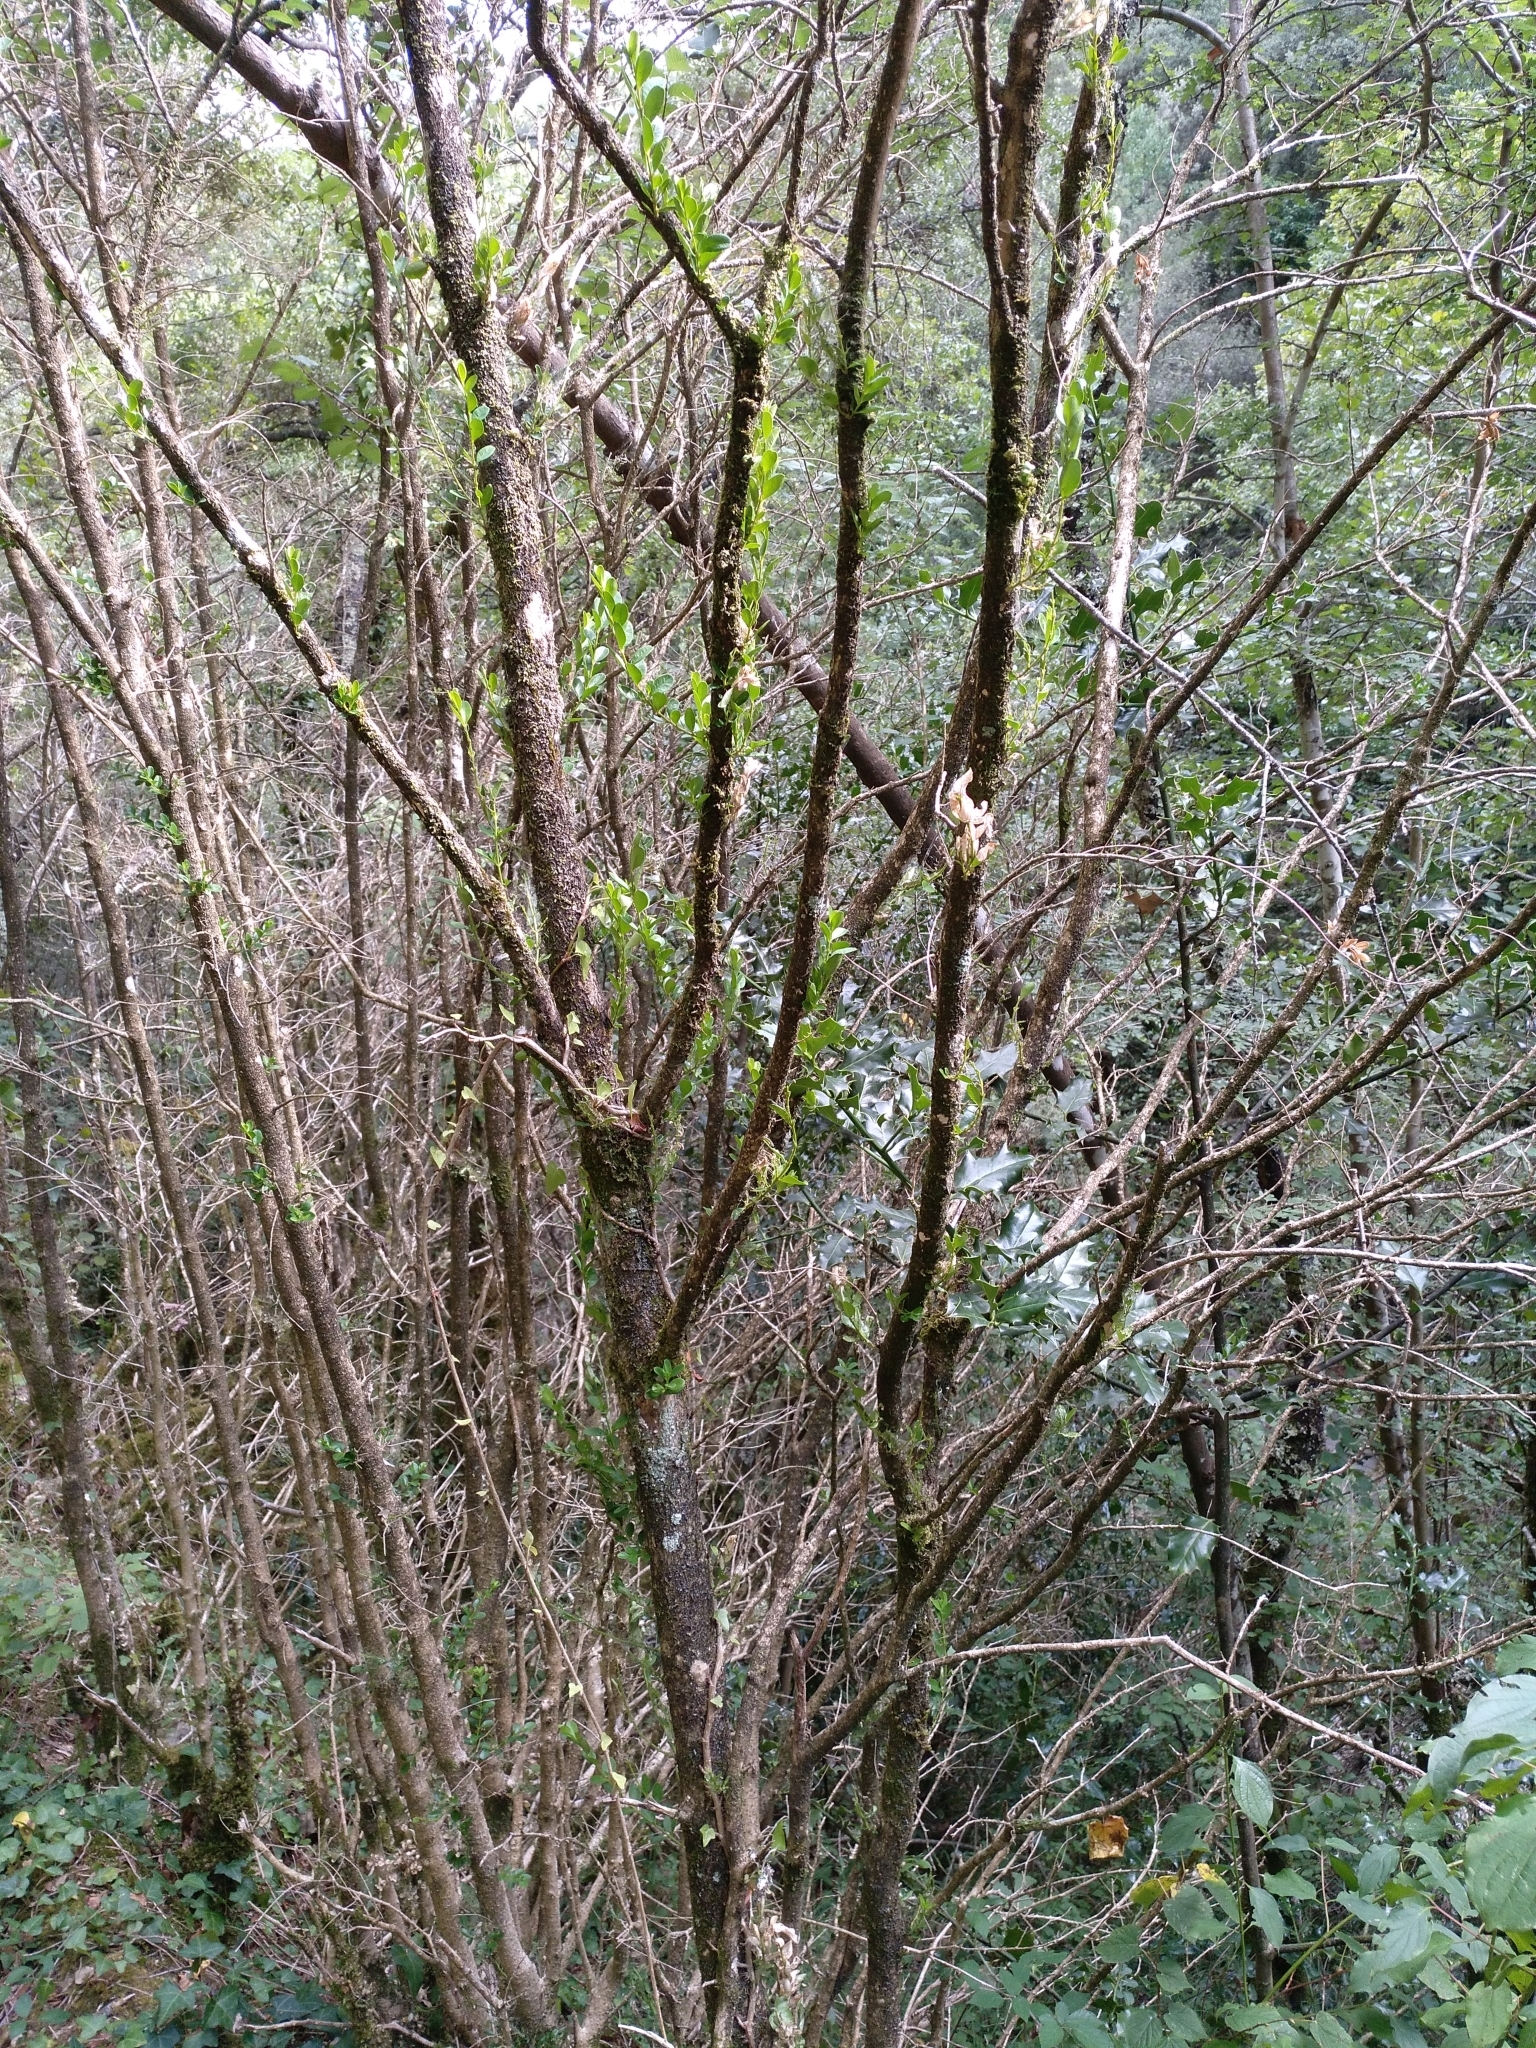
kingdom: Plantae
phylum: Tracheophyta
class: Magnoliopsida
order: Buxales
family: Buxaceae
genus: Buxus
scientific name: Buxus sempervirens
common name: Box
